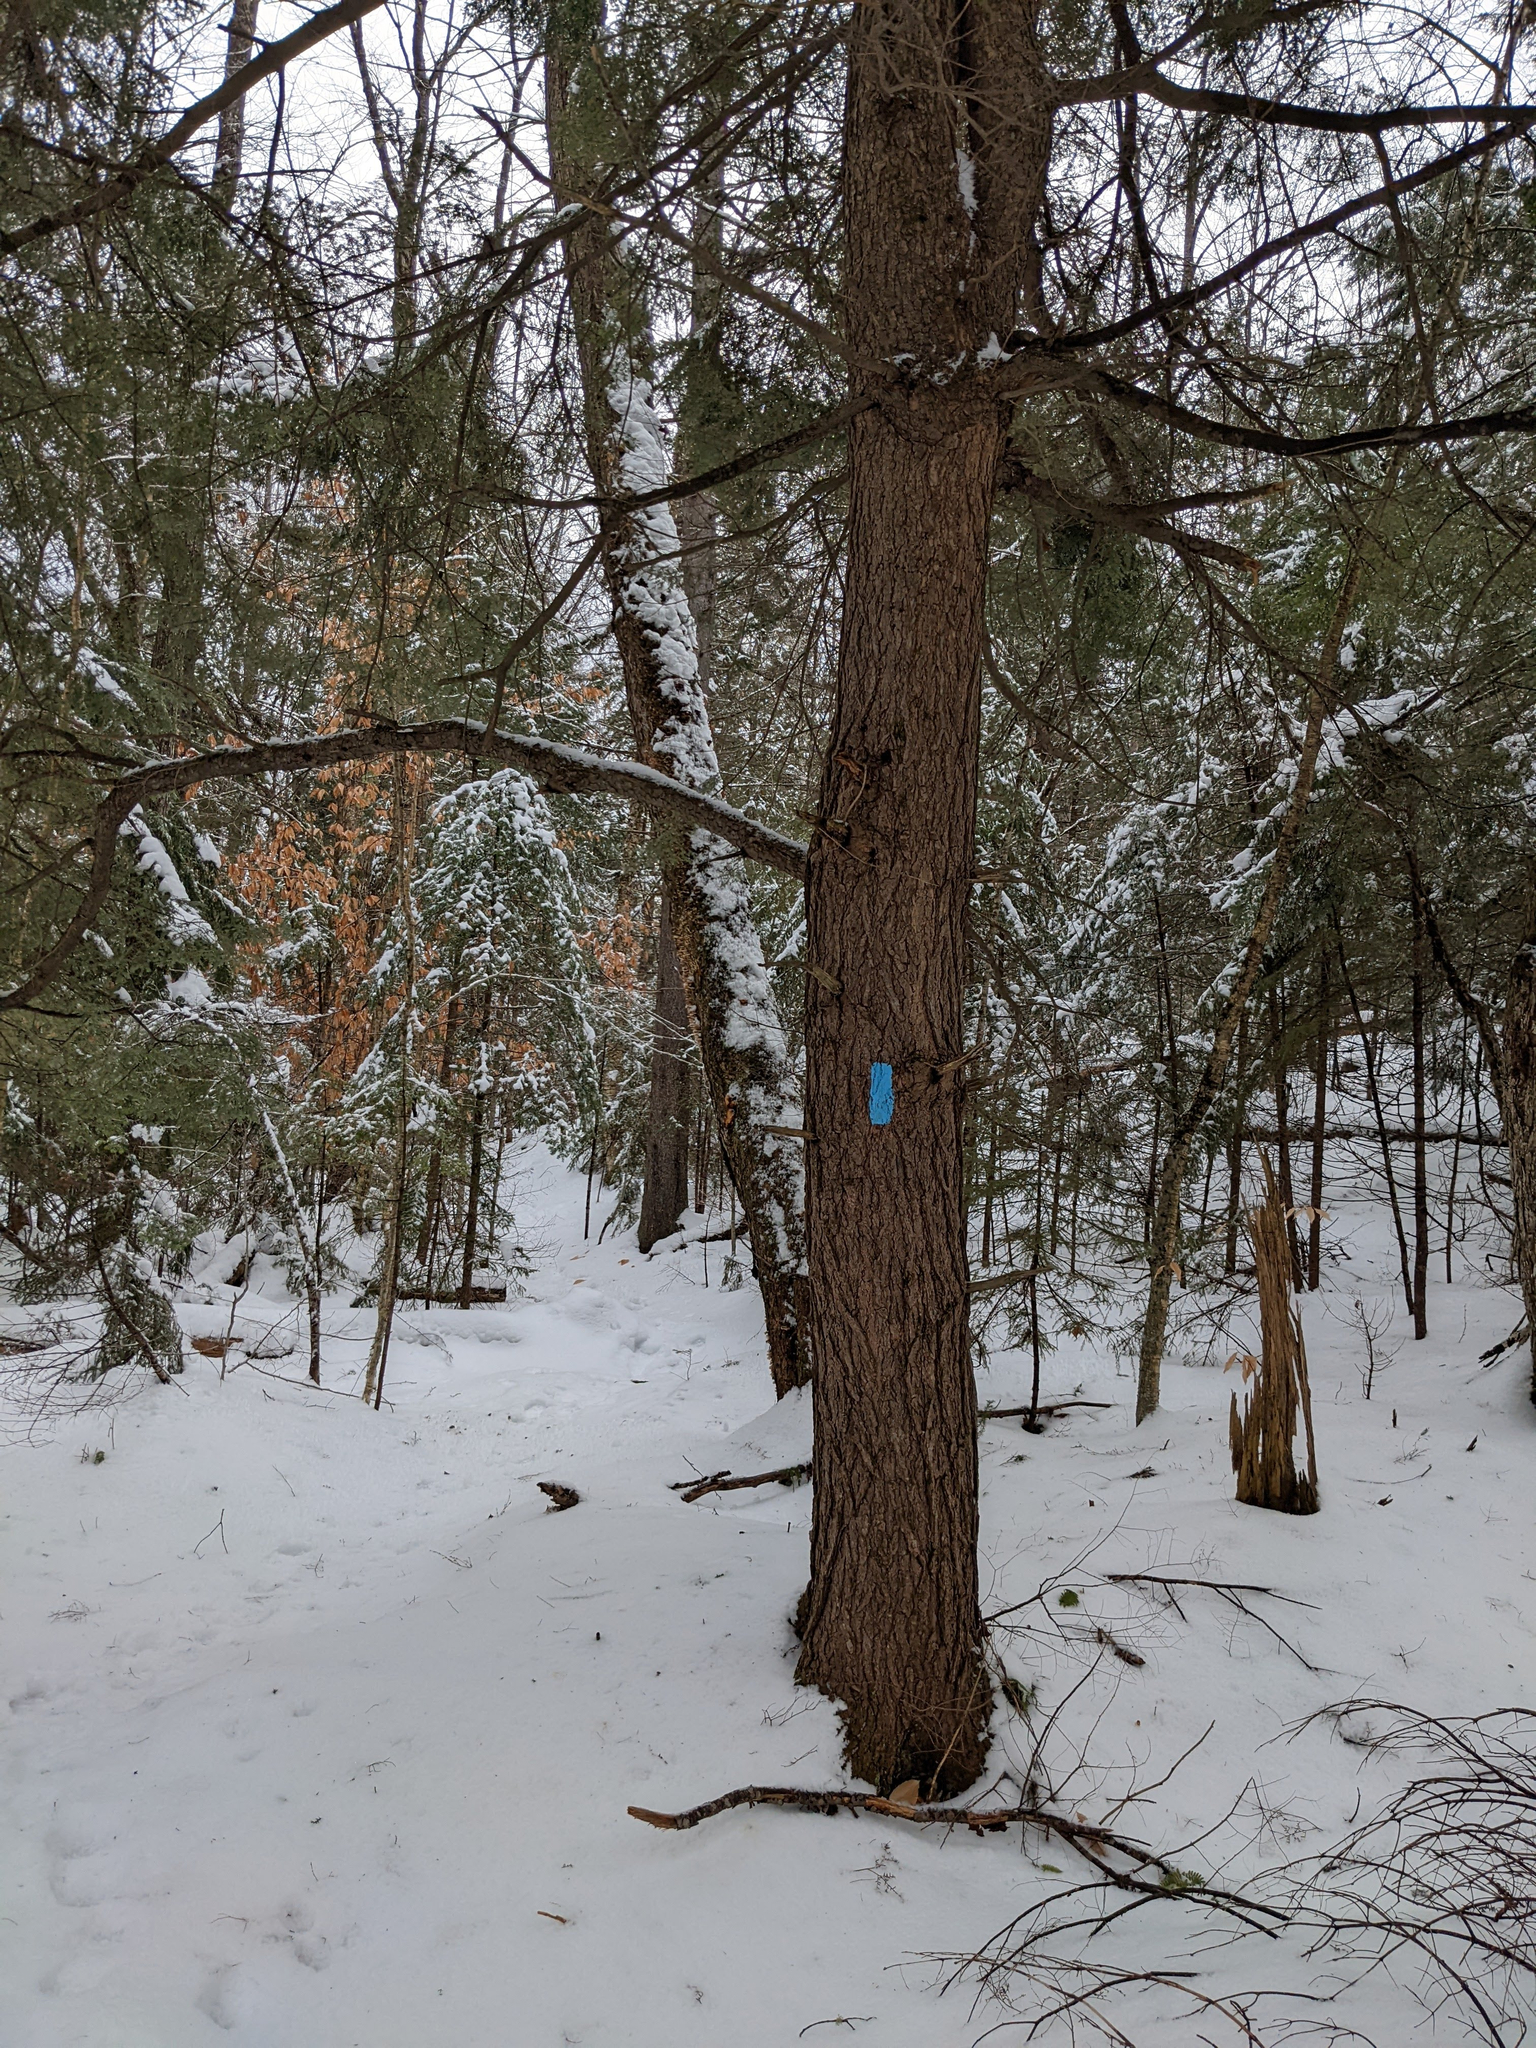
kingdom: Plantae
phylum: Tracheophyta
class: Pinopsida
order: Pinales
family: Pinaceae
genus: Tsuga
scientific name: Tsuga canadensis
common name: Eastern hemlock
